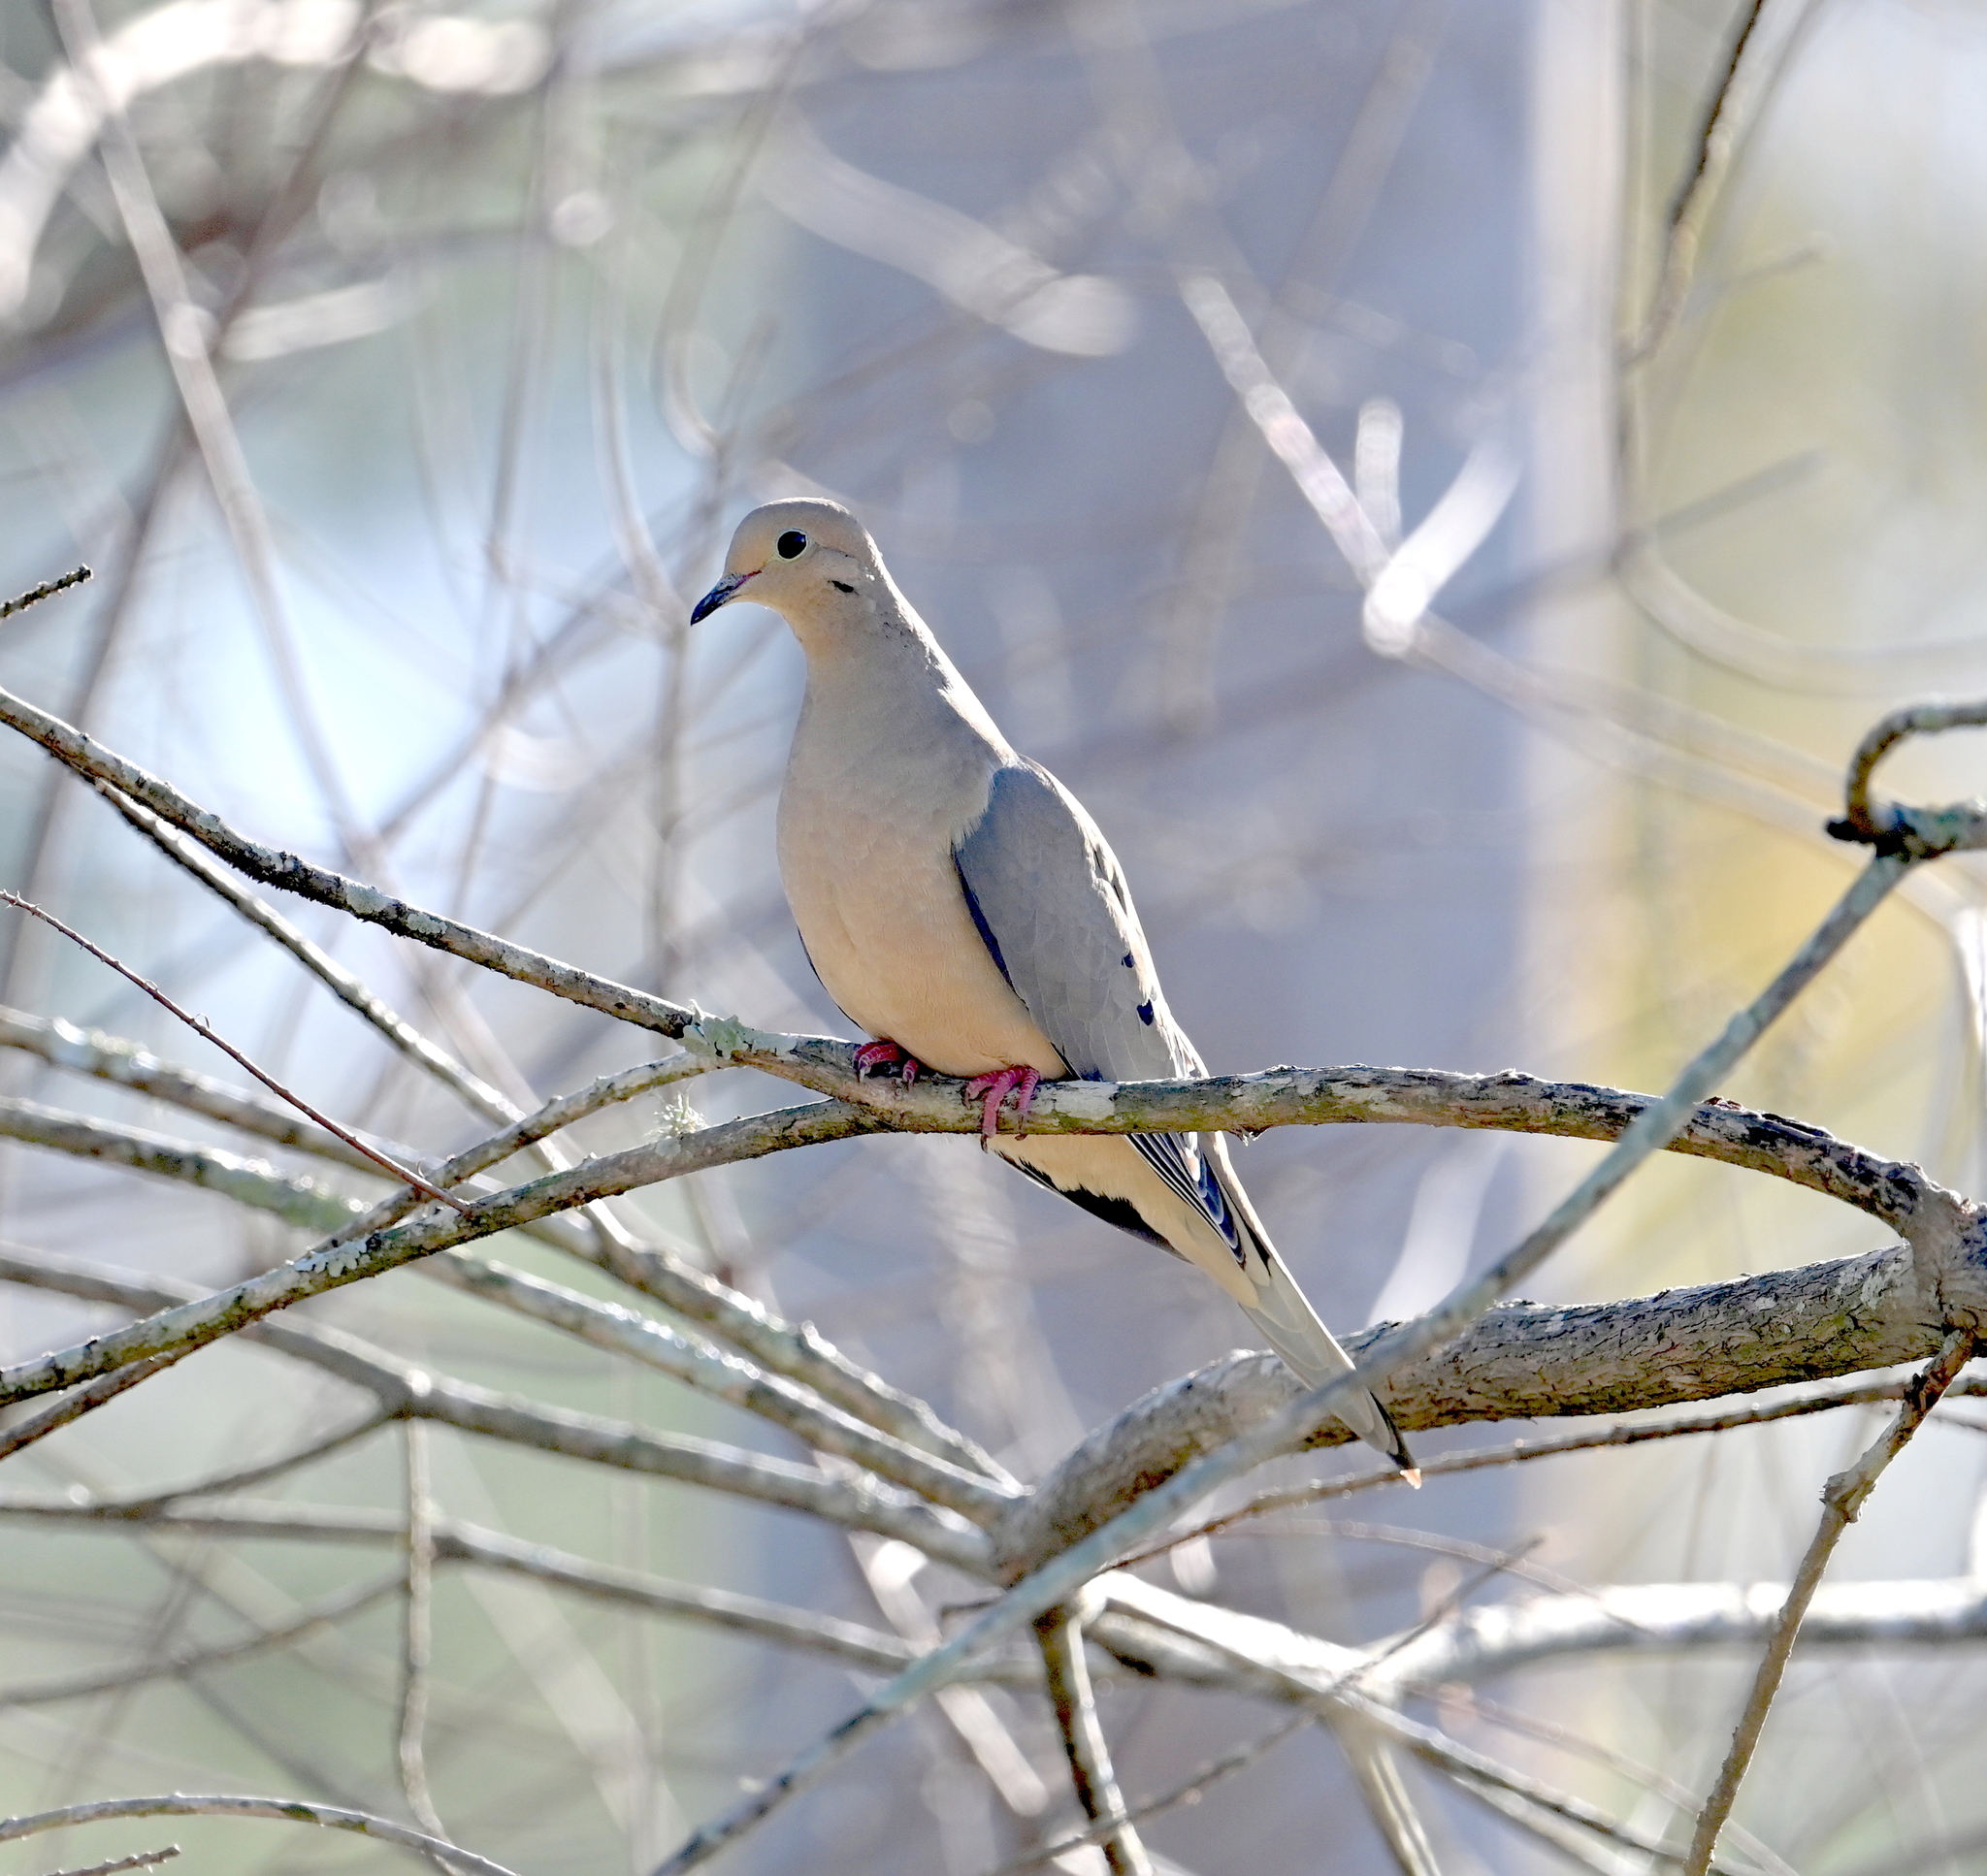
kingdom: Animalia
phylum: Chordata
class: Aves
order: Columbiformes
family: Columbidae
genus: Zenaida
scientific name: Zenaida macroura
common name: Mourning dove
